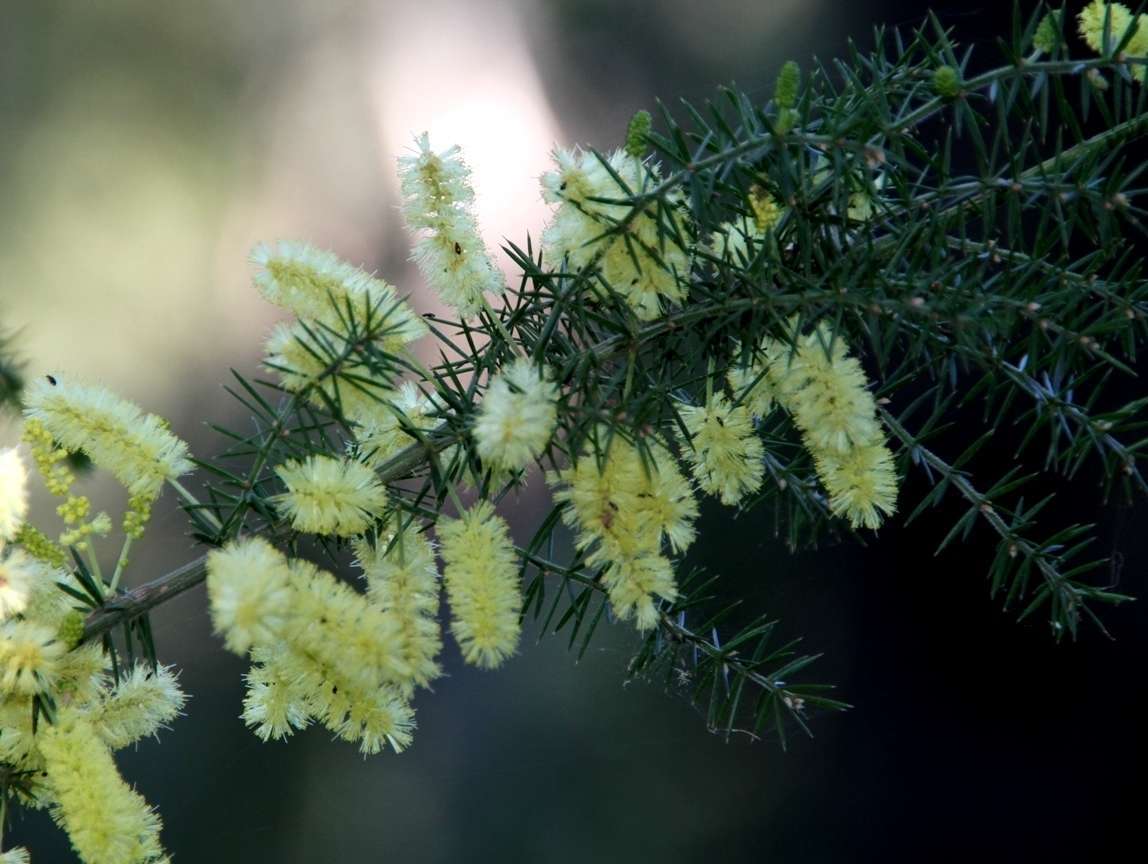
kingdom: Plantae
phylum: Tracheophyta
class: Magnoliopsida
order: Fabales
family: Fabaceae
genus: Acacia
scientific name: Acacia verticillata
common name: Prickly moses
